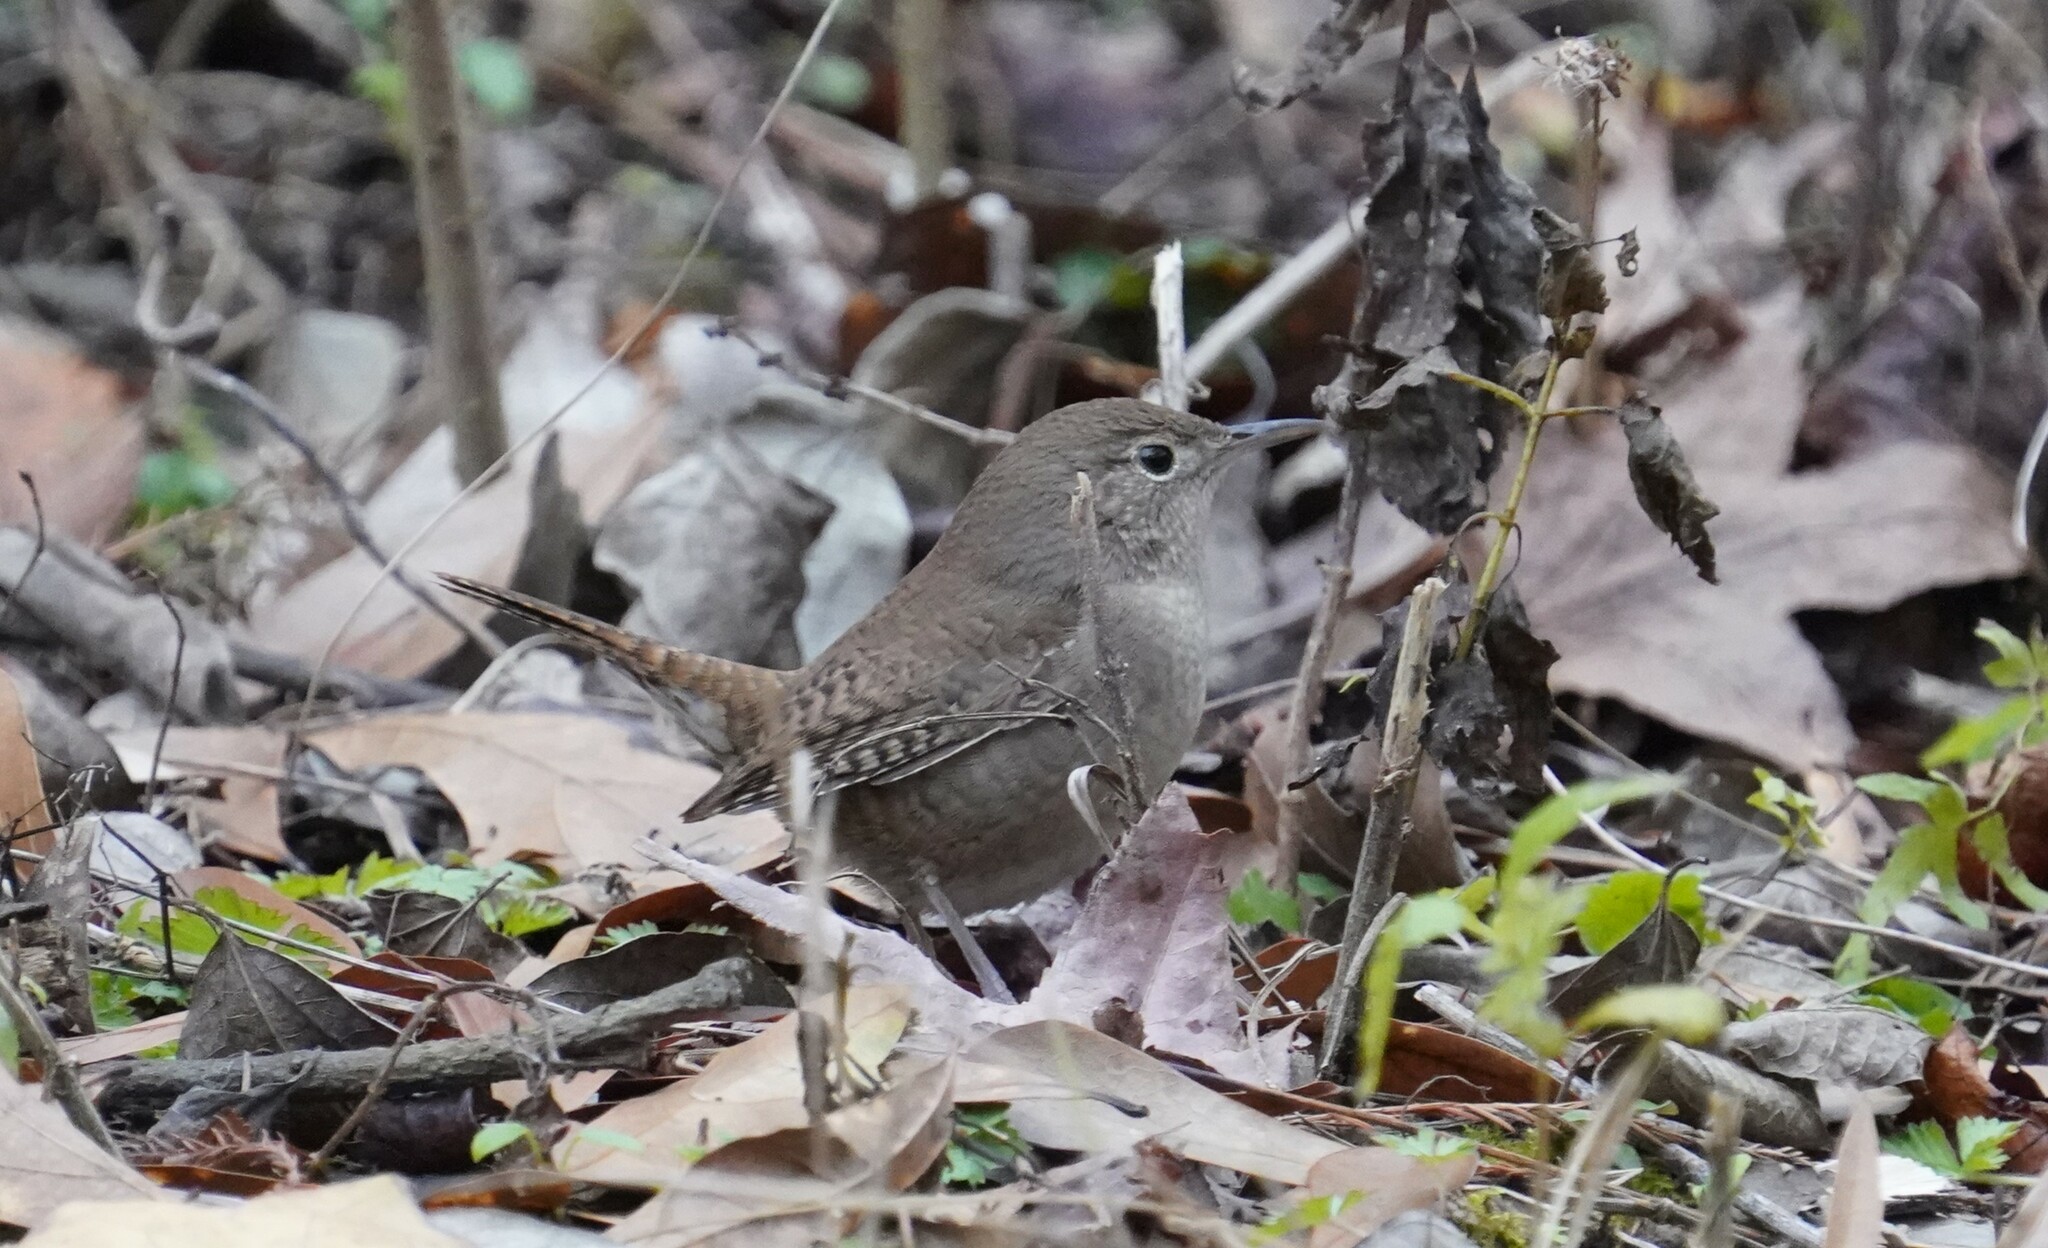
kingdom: Animalia
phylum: Chordata
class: Aves
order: Passeriformes
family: Troglodytidae
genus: Troglodytes
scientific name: Troglodytes aedon
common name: House wren
